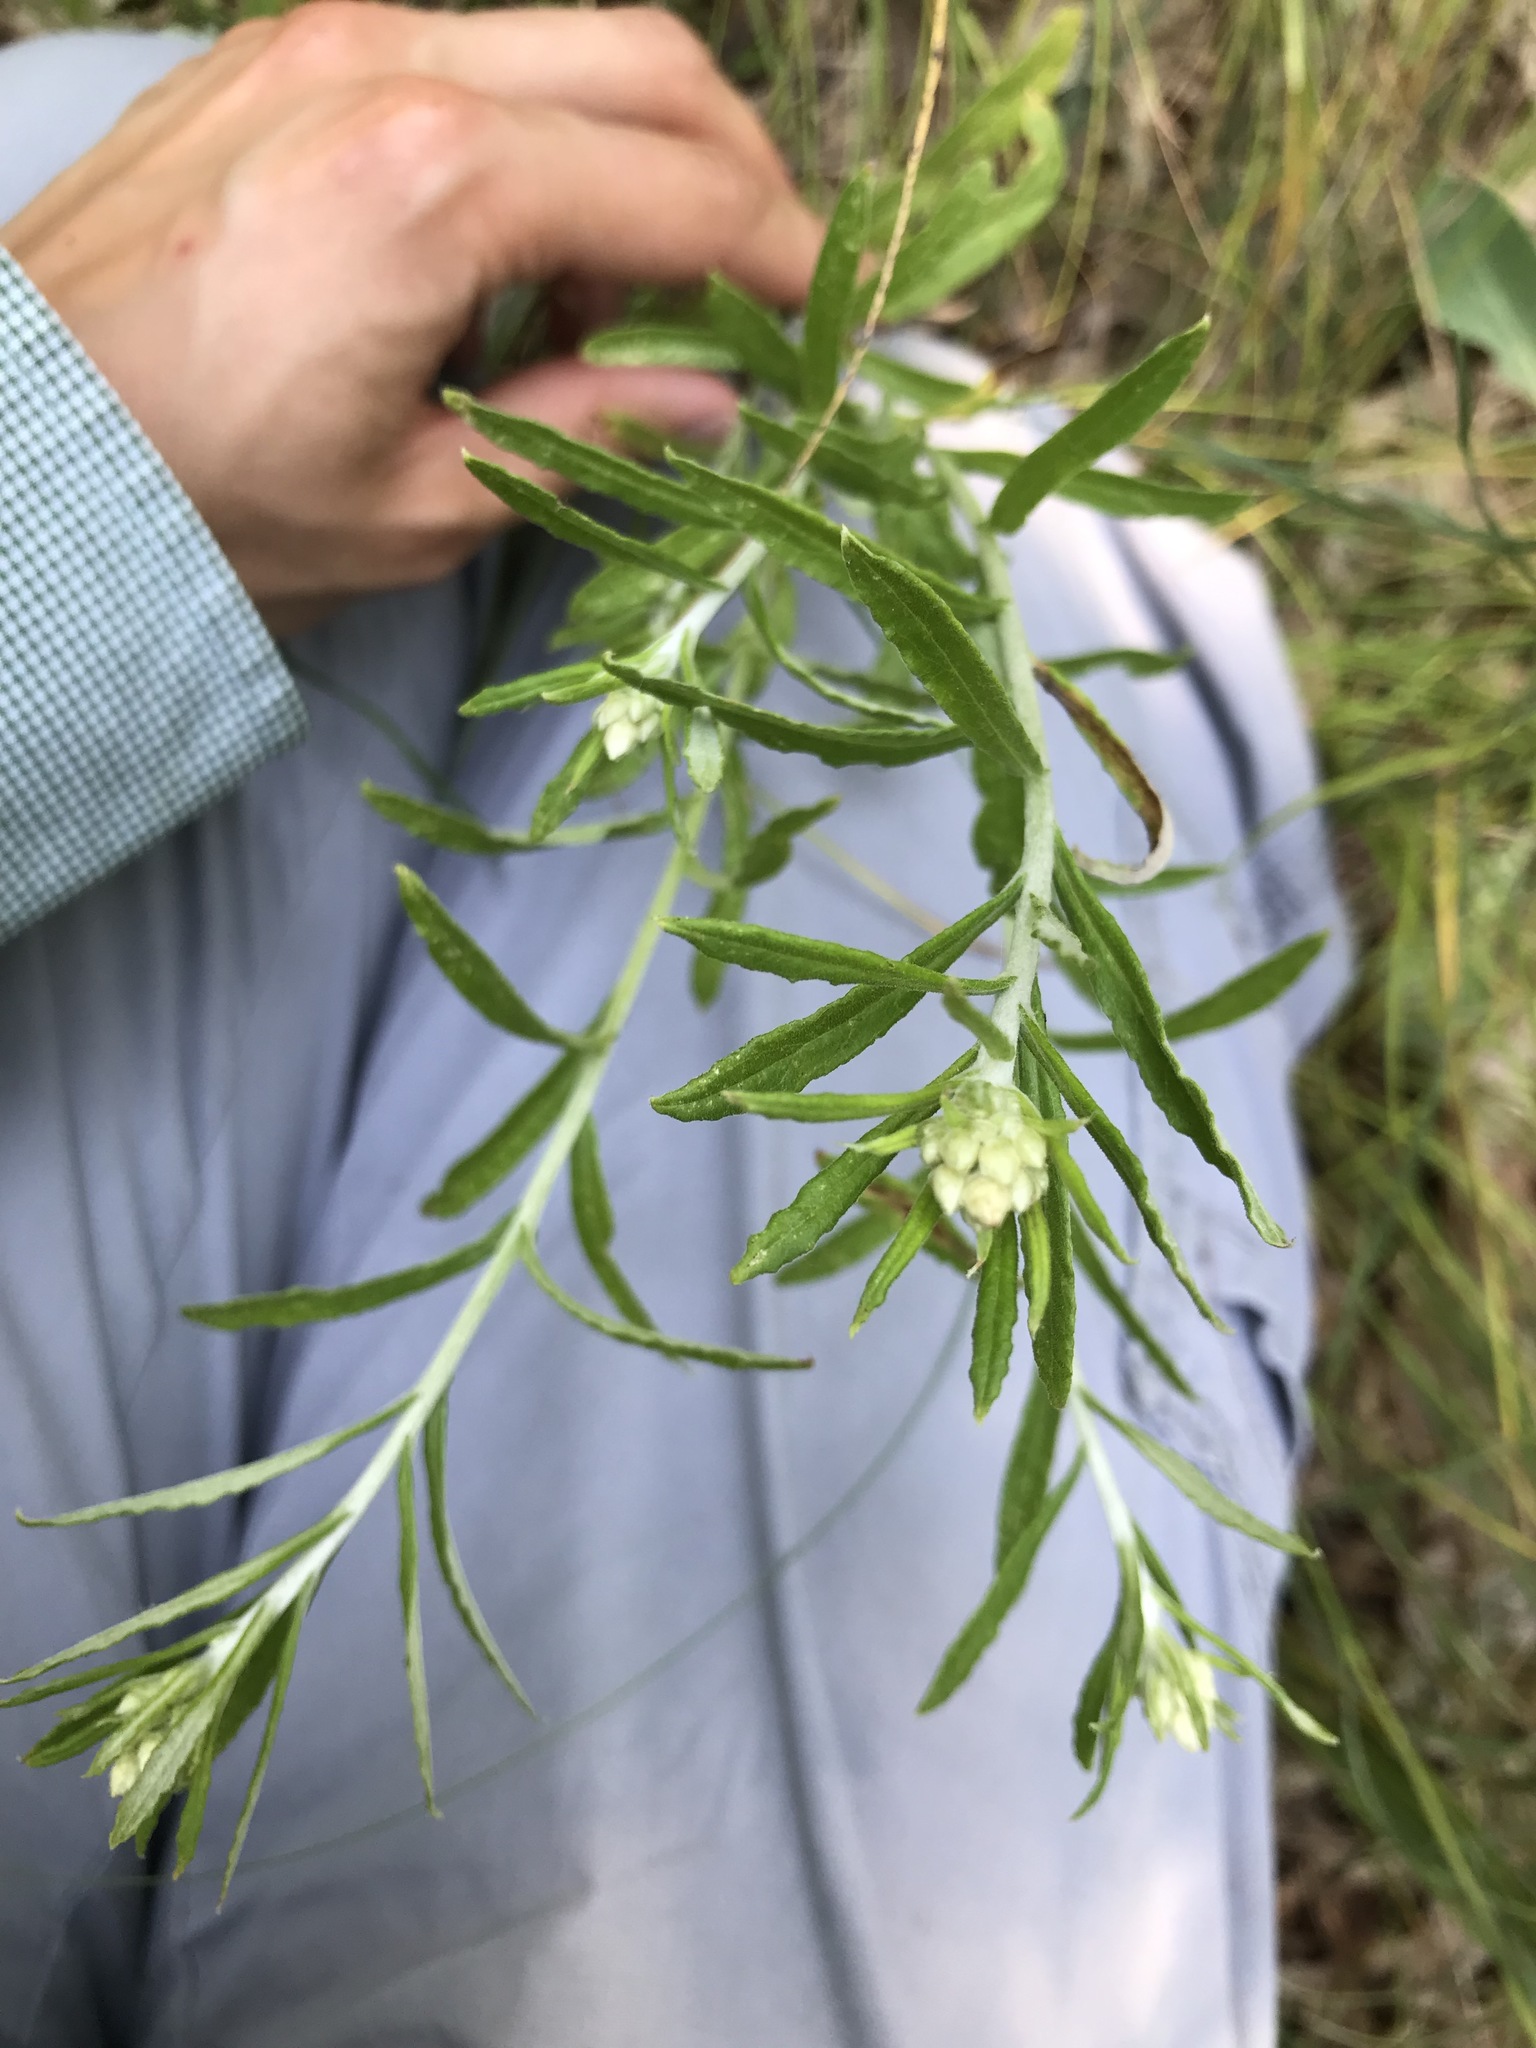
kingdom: Plantae
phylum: Tracheophyta
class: Magnoliopsida
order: Asterales
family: Asteraceae
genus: Pseudognaphalium
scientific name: Pseudognaphalium obtusifolium
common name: Eastern rabbit-tobacco
